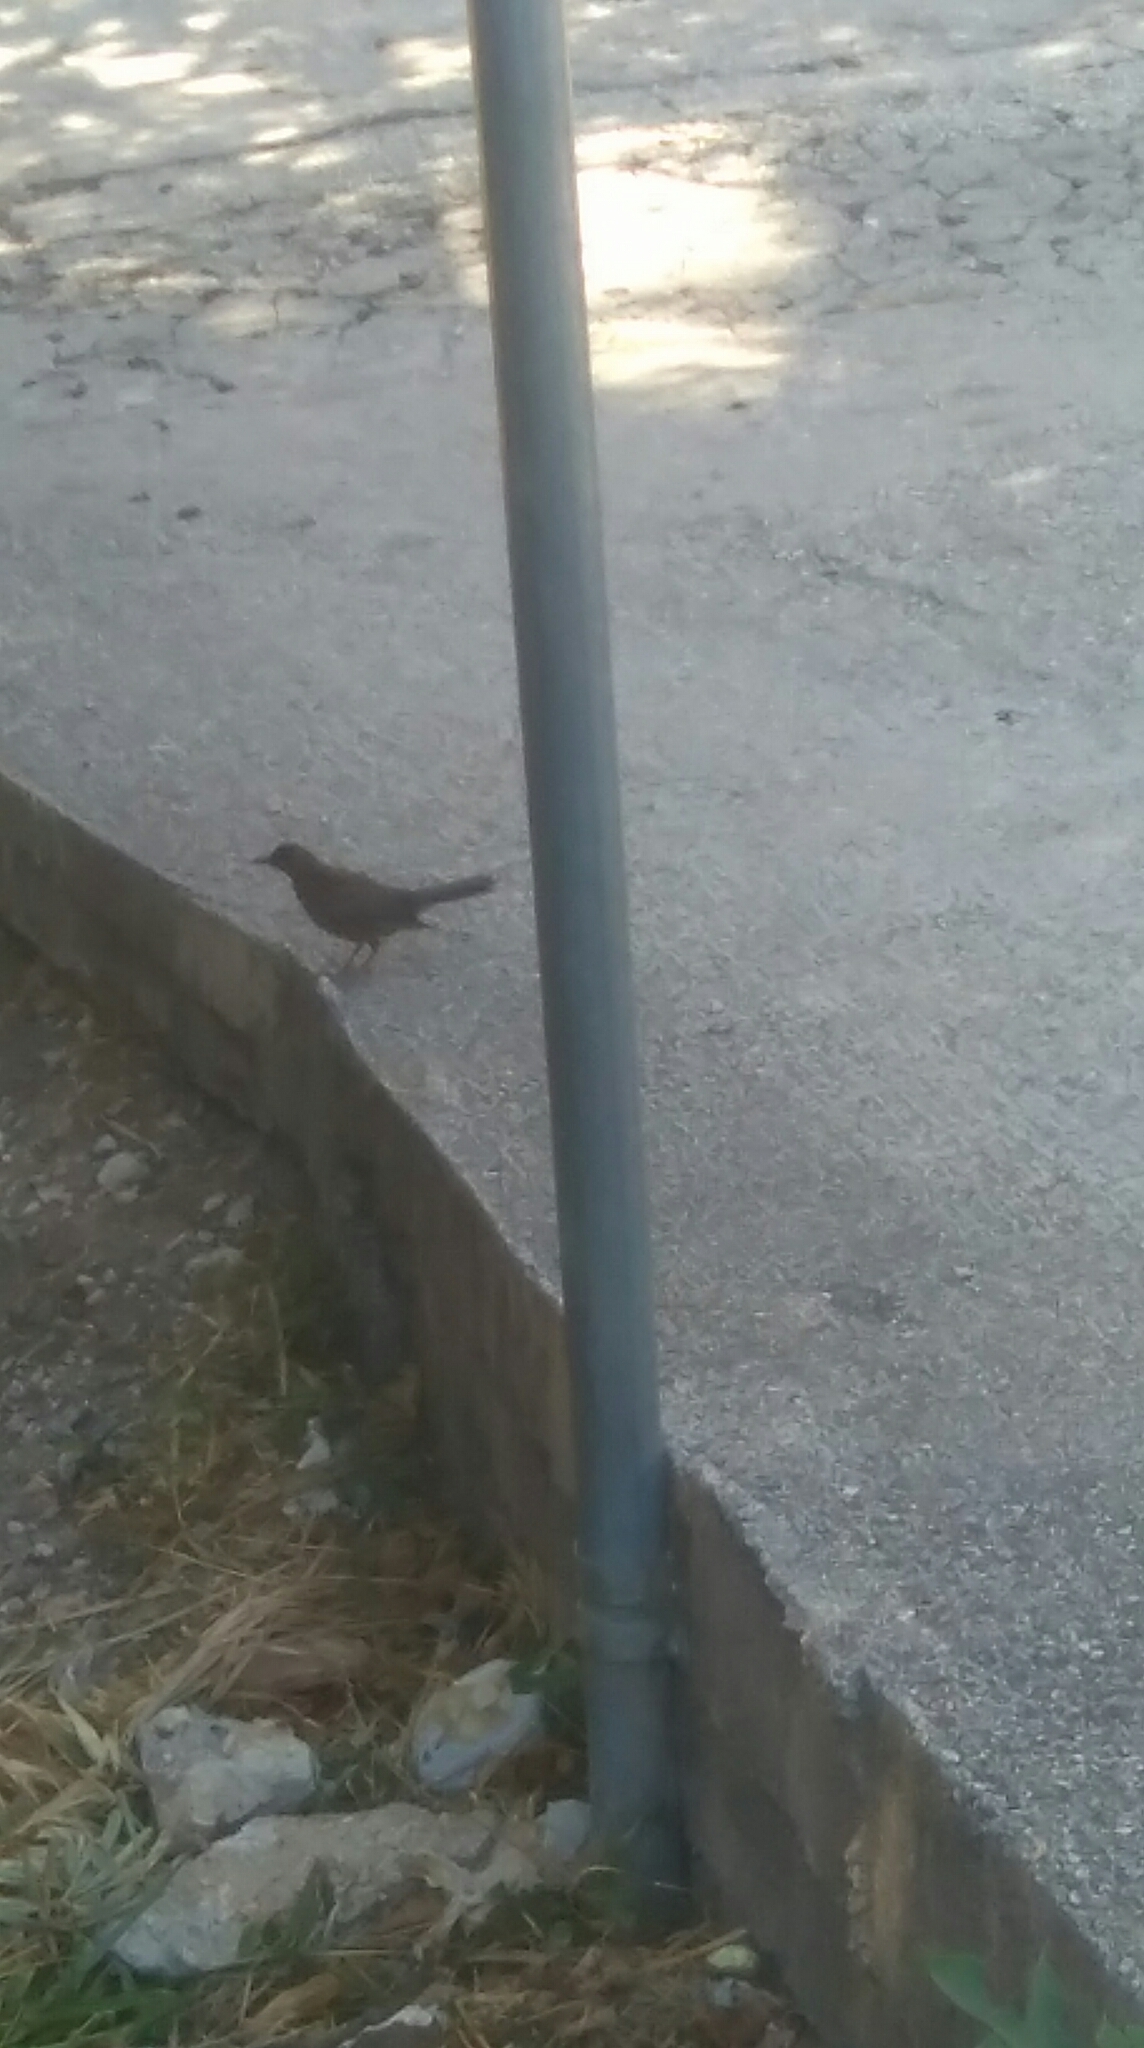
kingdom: Animalia
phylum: Chordata
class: Aves
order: Passeriformes
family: Turdidae
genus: Turdus
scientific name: Turdus merula
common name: Common blackbird
